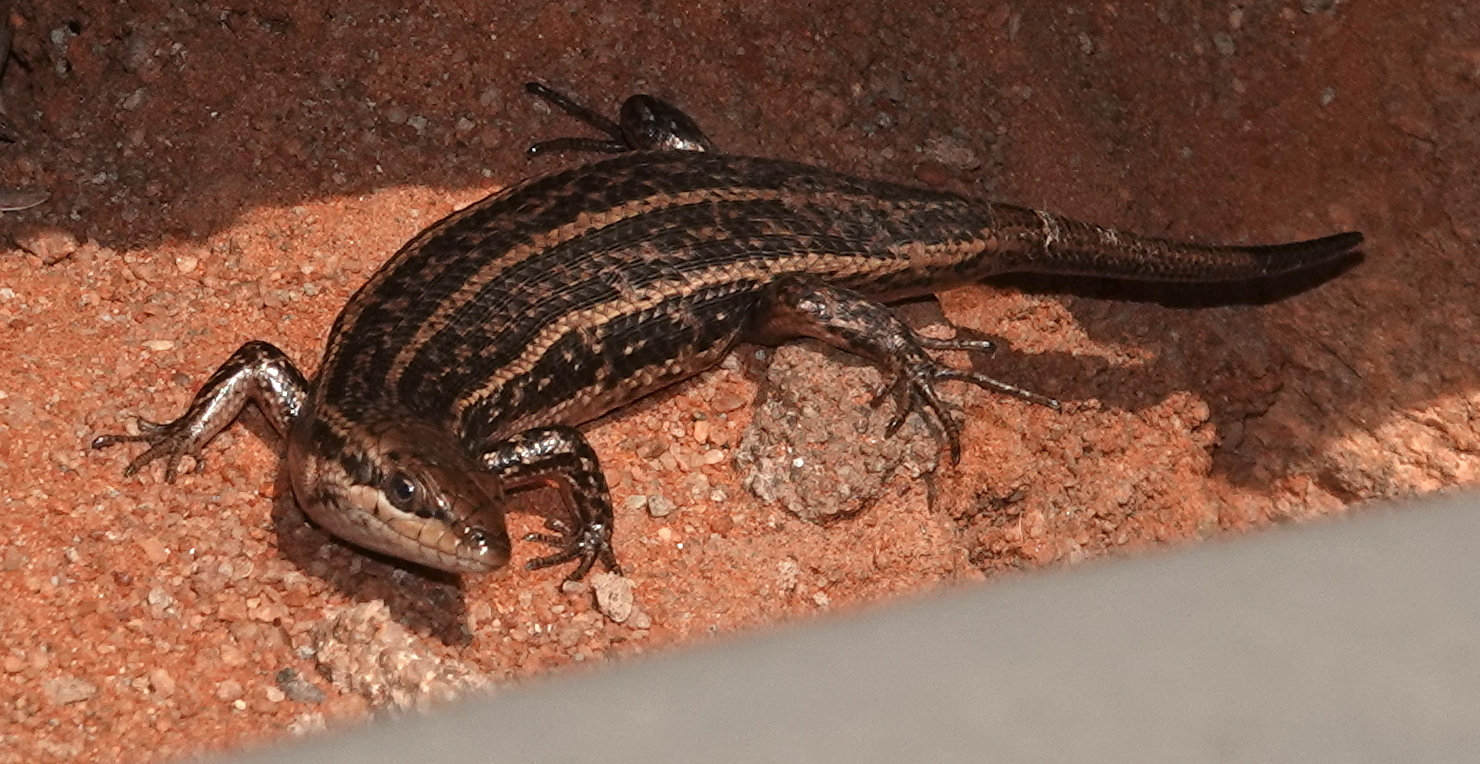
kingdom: Animalia
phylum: Chordata
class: Squamata
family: Scincidae
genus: Trachylepis
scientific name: Trachylepis variegata
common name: Variegated skink
